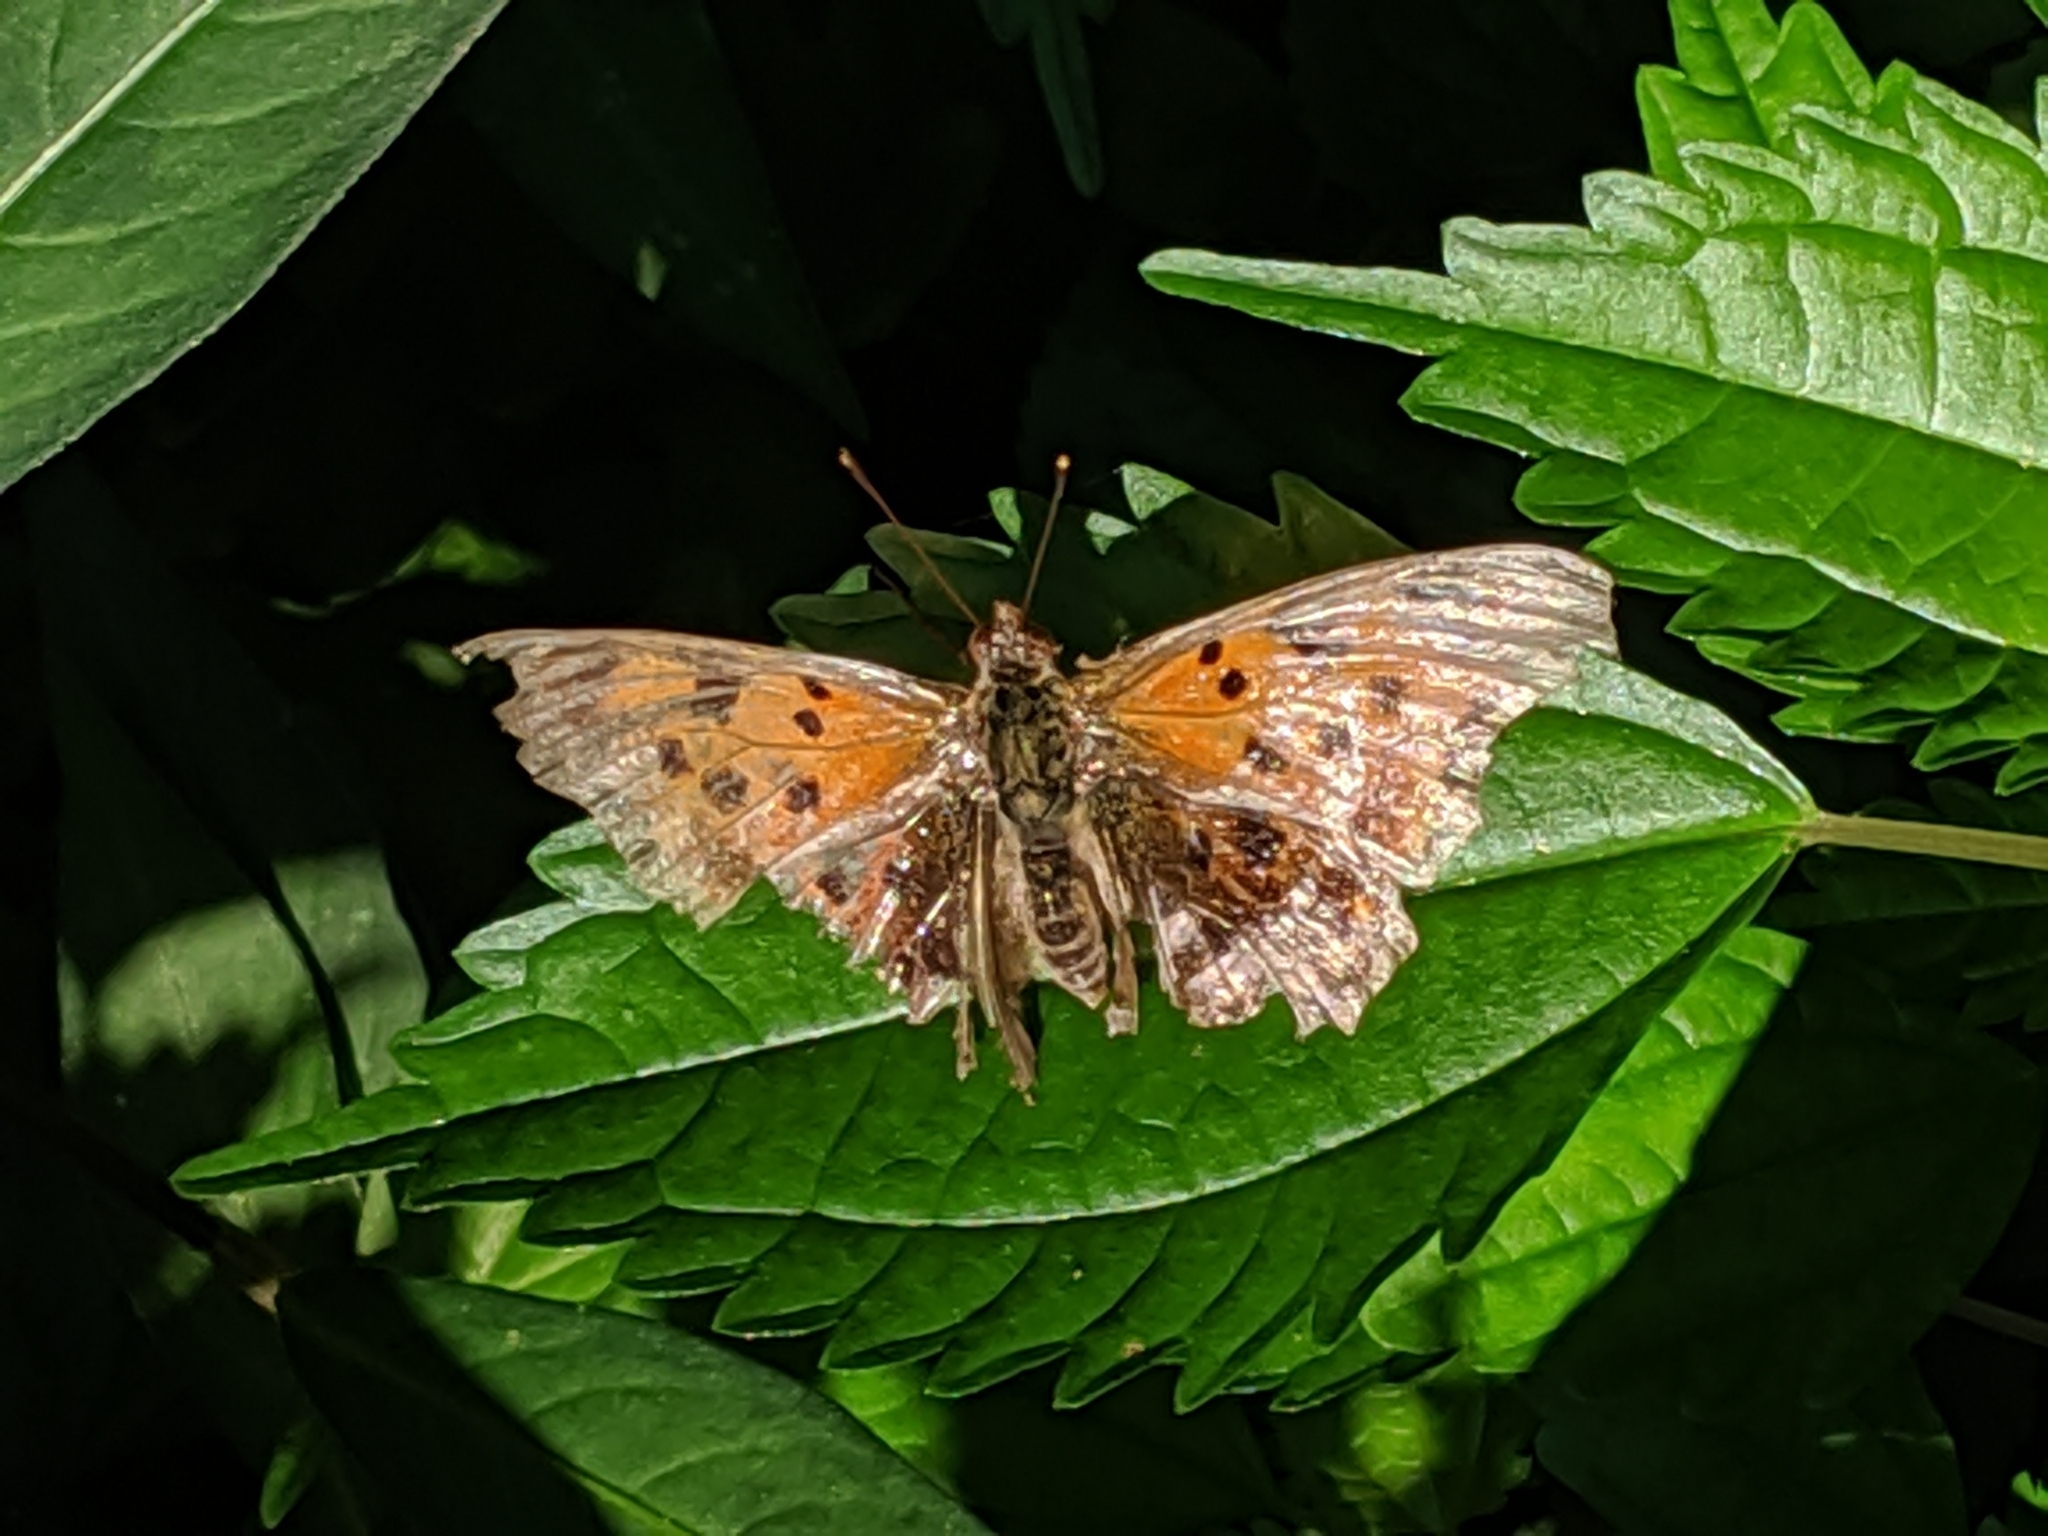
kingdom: Animalia
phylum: Arthropoda
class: Insecta
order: Lepidoptera
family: Nymphalidae
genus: Polygonia
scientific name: Polygonia
